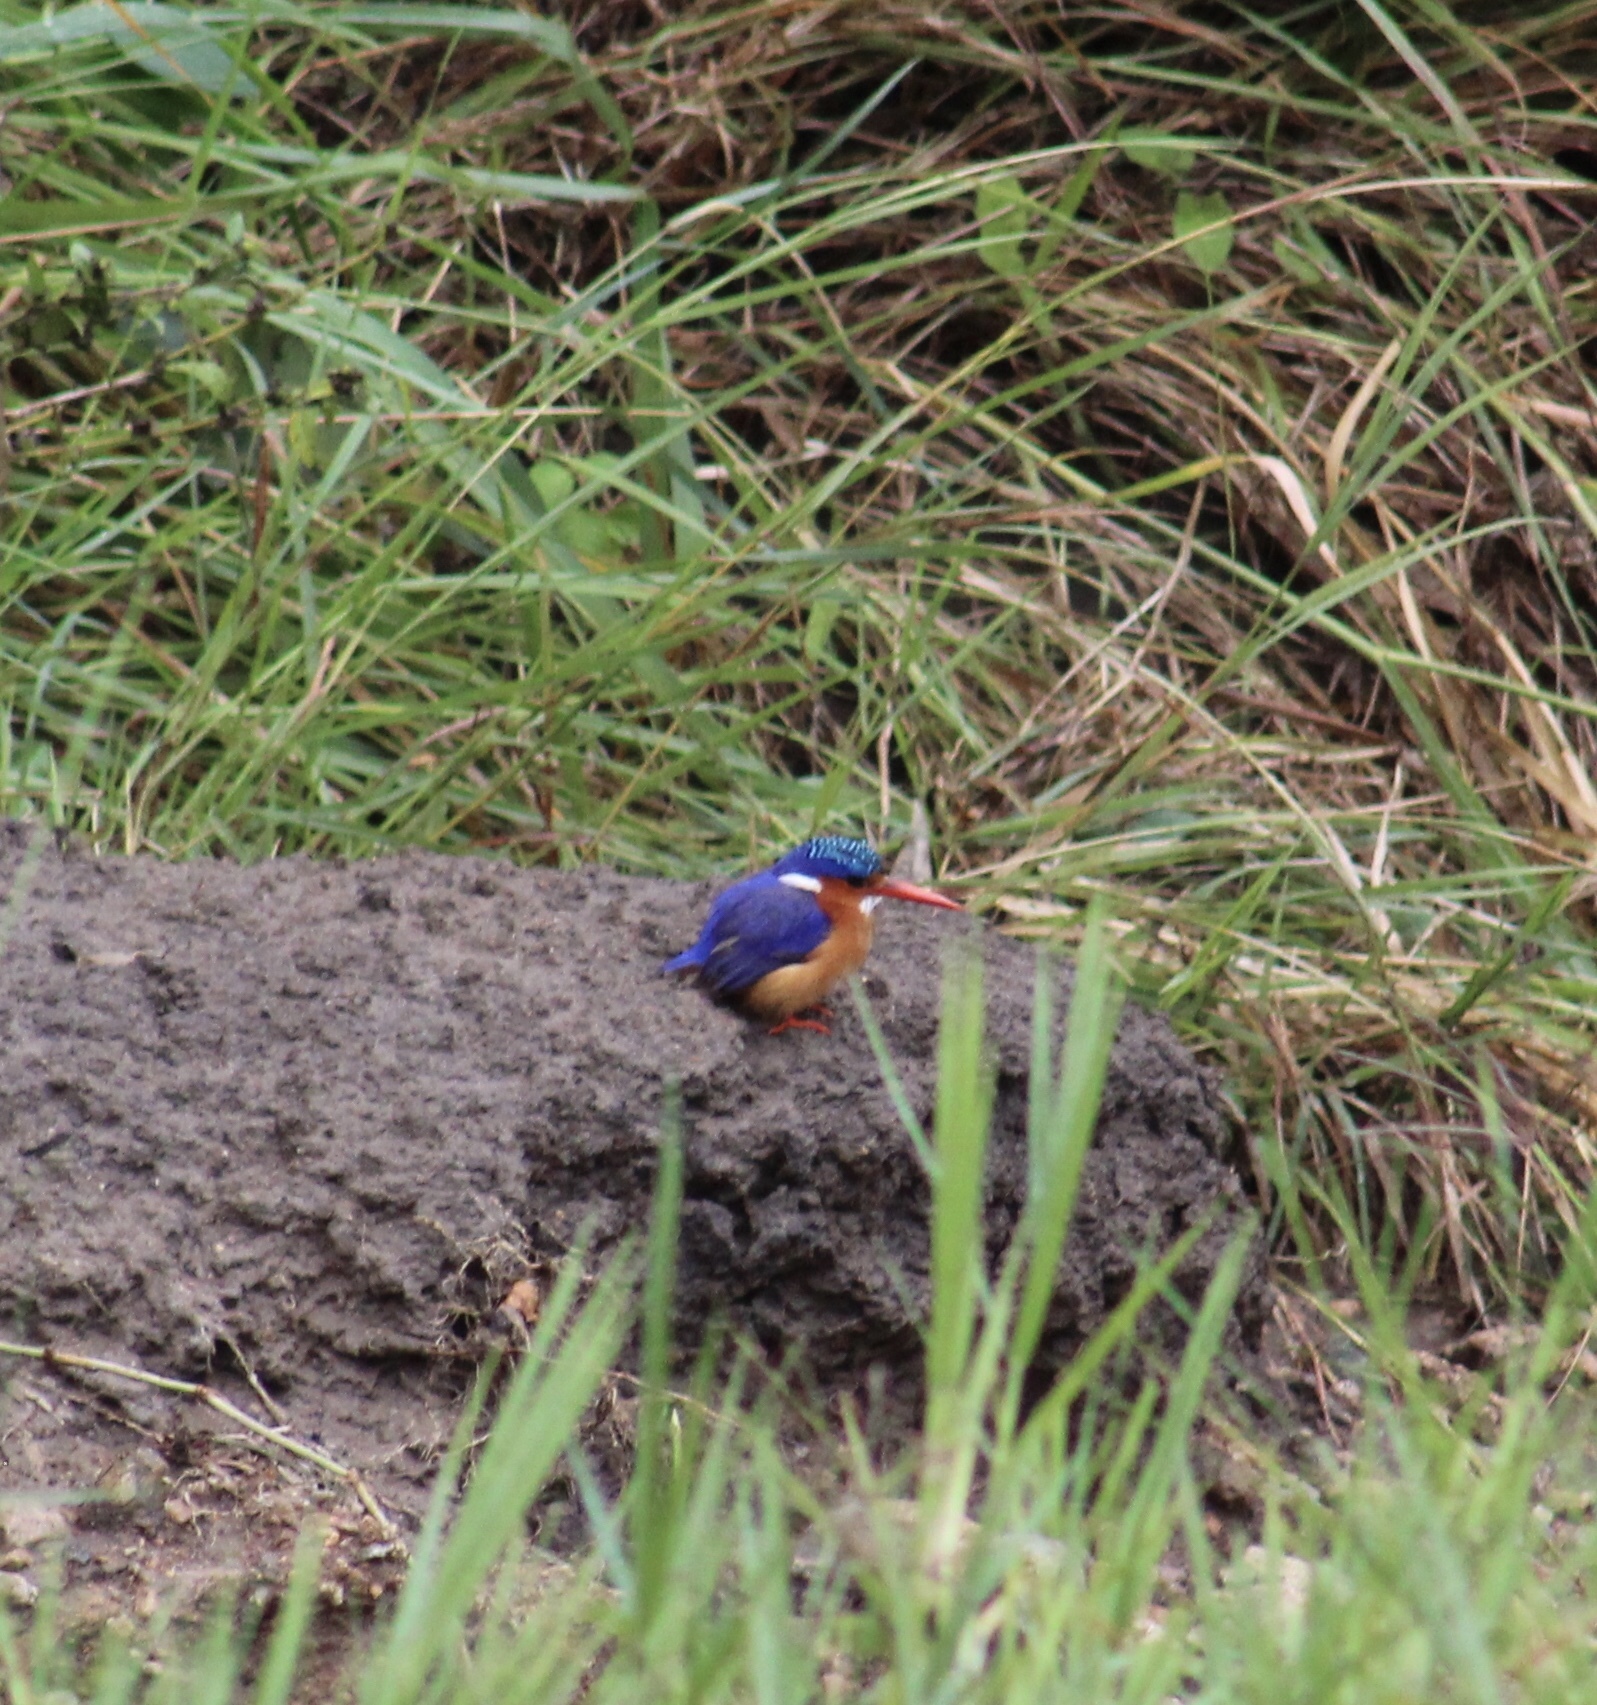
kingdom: Animalia
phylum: Chordata
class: Aves
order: Coraciiformes
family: Alcedinidae
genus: Corythornis
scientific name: Corythornis cristatus
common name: Malachite kingfisher
